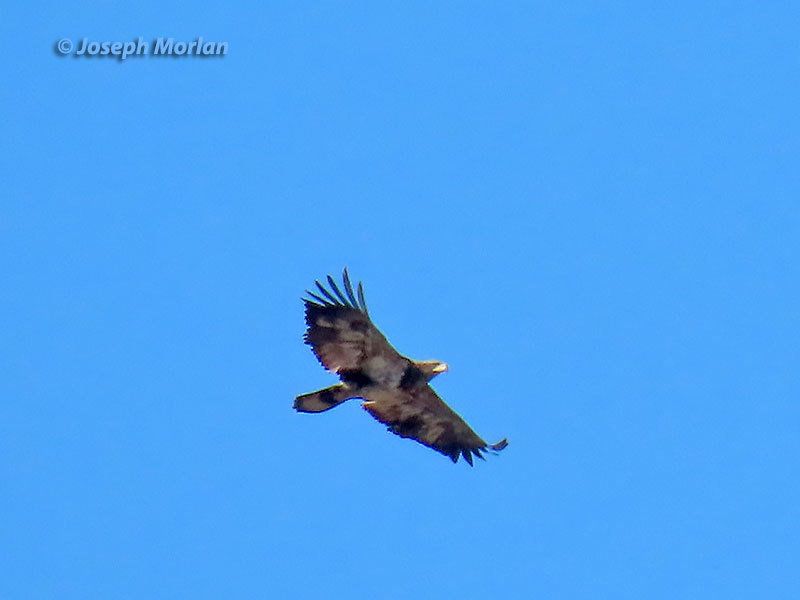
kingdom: Animalia
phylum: Chordata
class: Aves
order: Accipitriformes
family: Accipitridae
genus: Haliaeetus
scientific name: Haliaeetus leucocephalus
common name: Bald eagle
